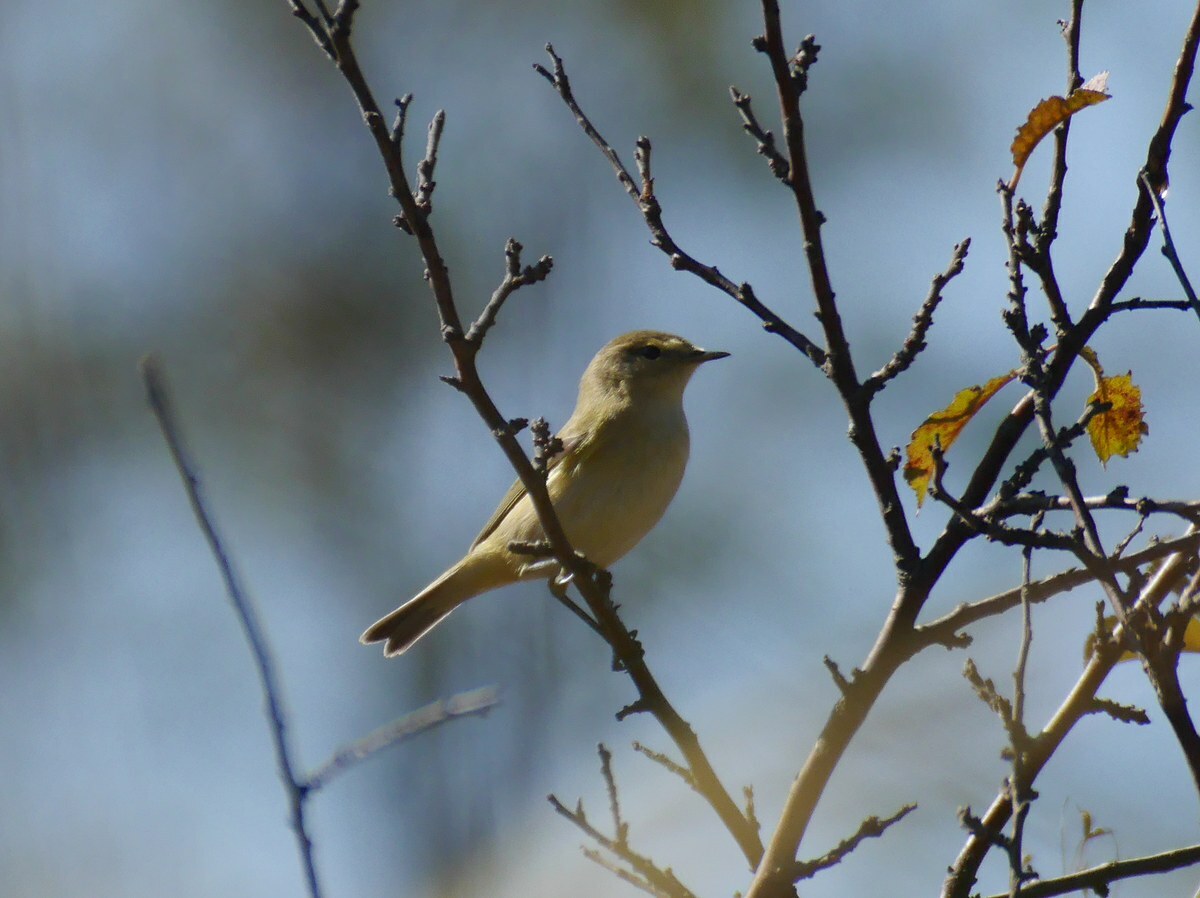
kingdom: Animalia
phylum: Chordata
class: Aves
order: Passeriformes
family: Phylloscopidae
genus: Phylloscopus
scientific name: Phylloscopus collybita
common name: Common chiffchaff
